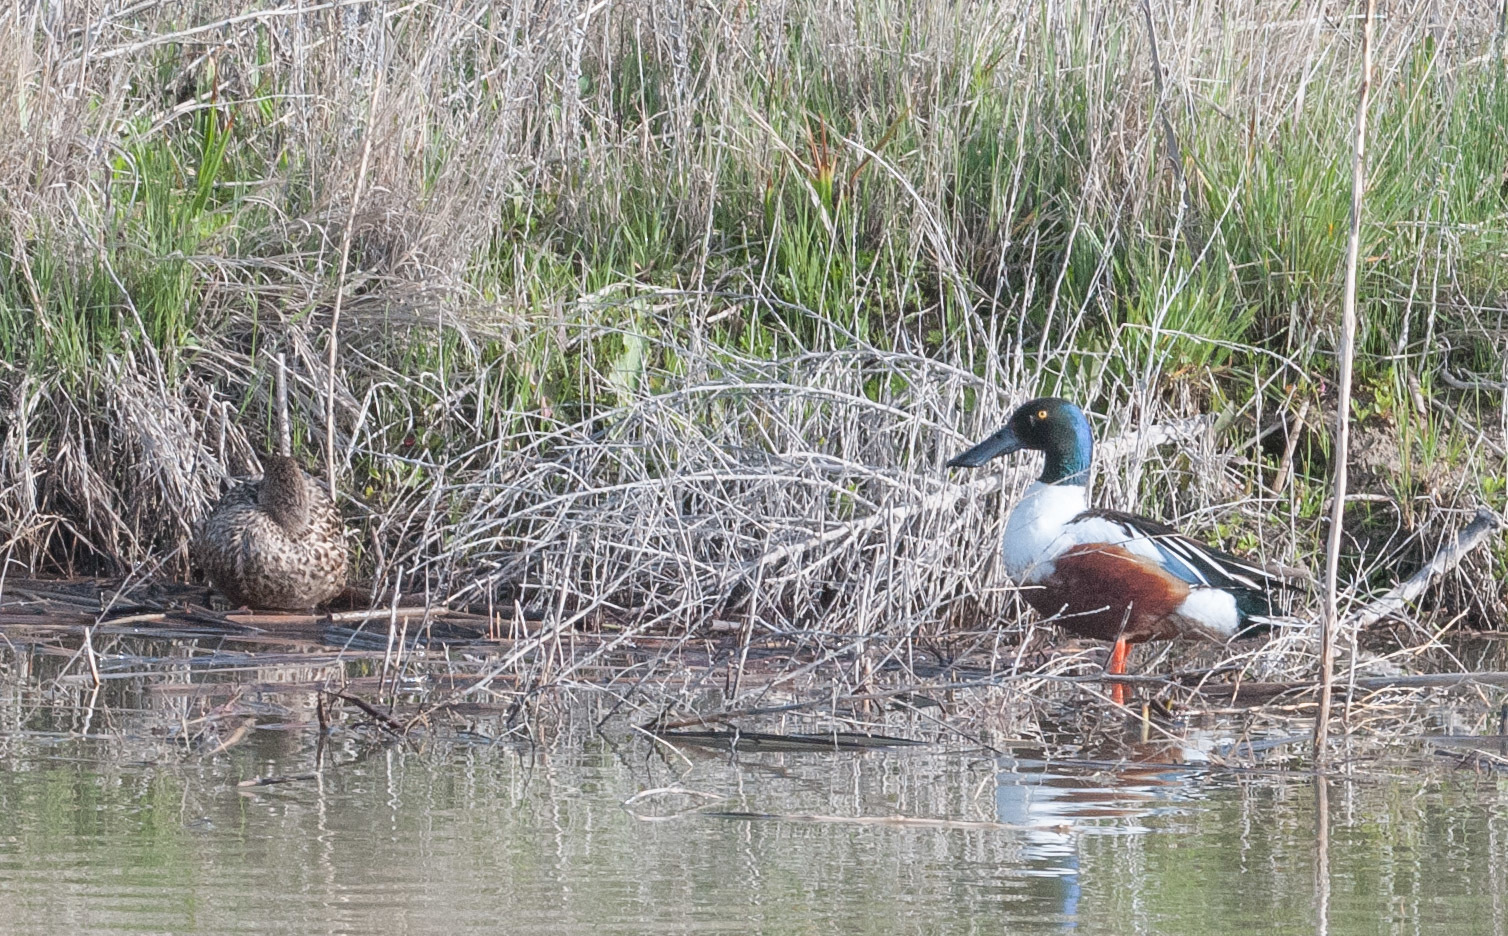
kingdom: Animalia
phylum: Chordata
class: Aves
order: Anseriformes
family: Anatidae
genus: Spatula
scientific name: Spatula clypeata
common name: Northern shoveler
